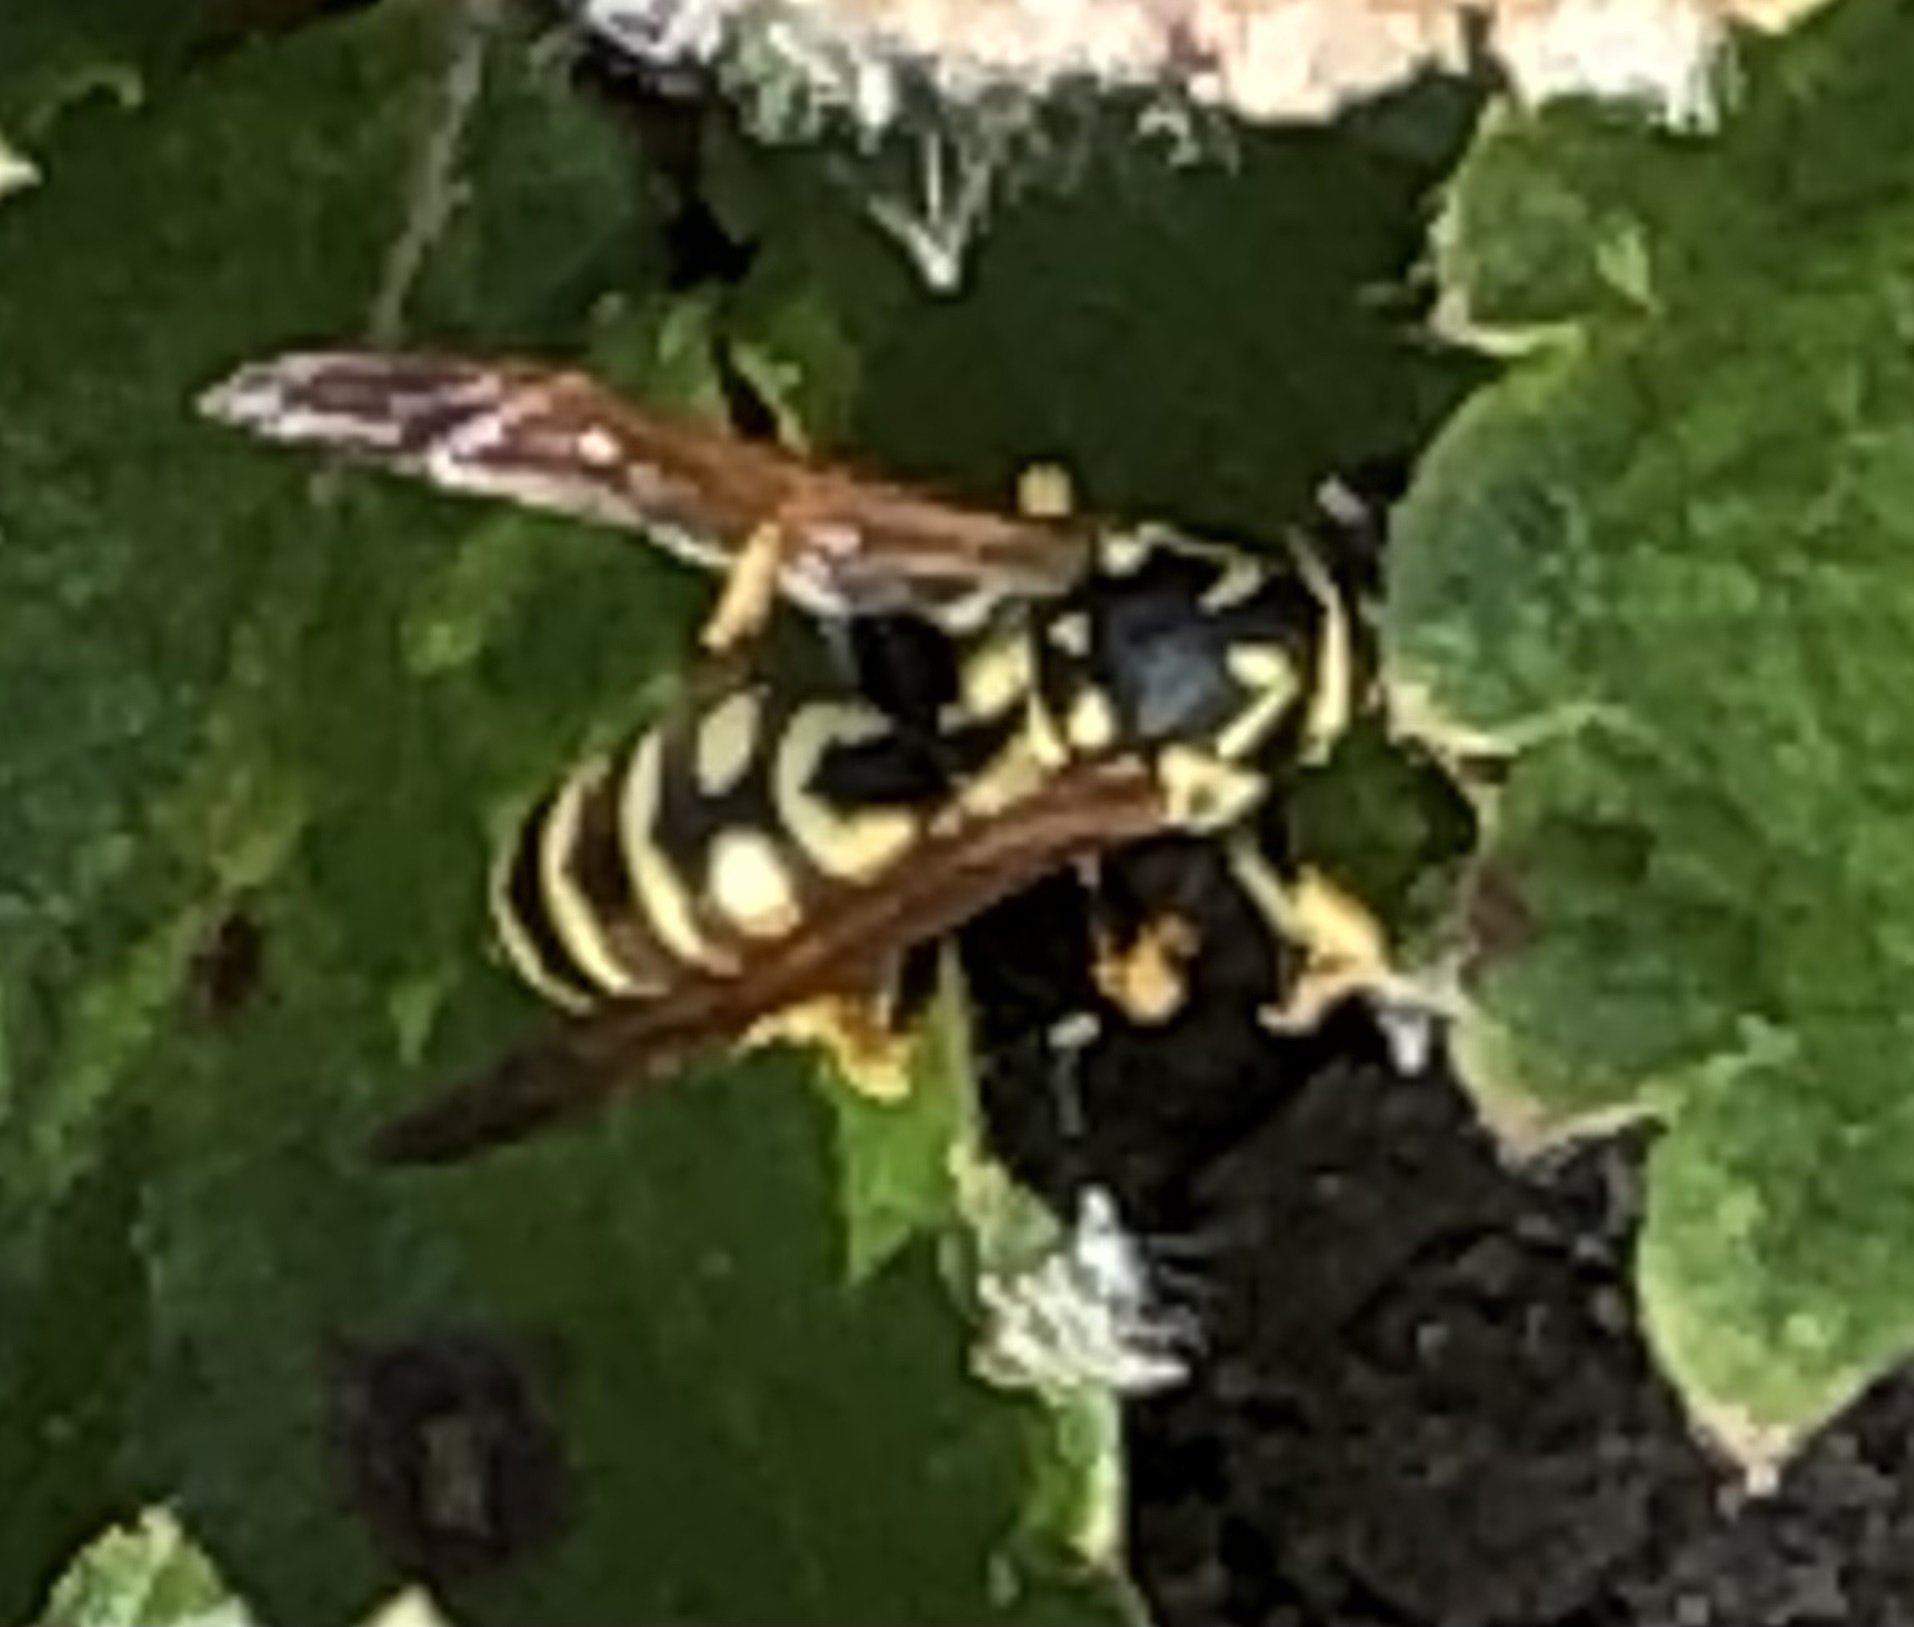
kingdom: Animalia
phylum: Arthropoda
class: Insecta
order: Hymenoptera
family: Eumenidae
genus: Polistes
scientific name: Polistes dominula
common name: Paper wasp
